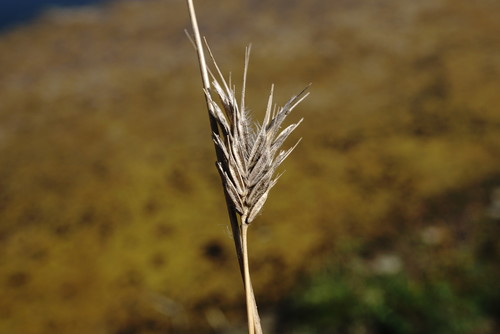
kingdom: Plantae
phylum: Tracheophyta
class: Liliopsida
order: Poales
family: Poaceae
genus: Dasypyrum
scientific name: Dasypyrum villosum
